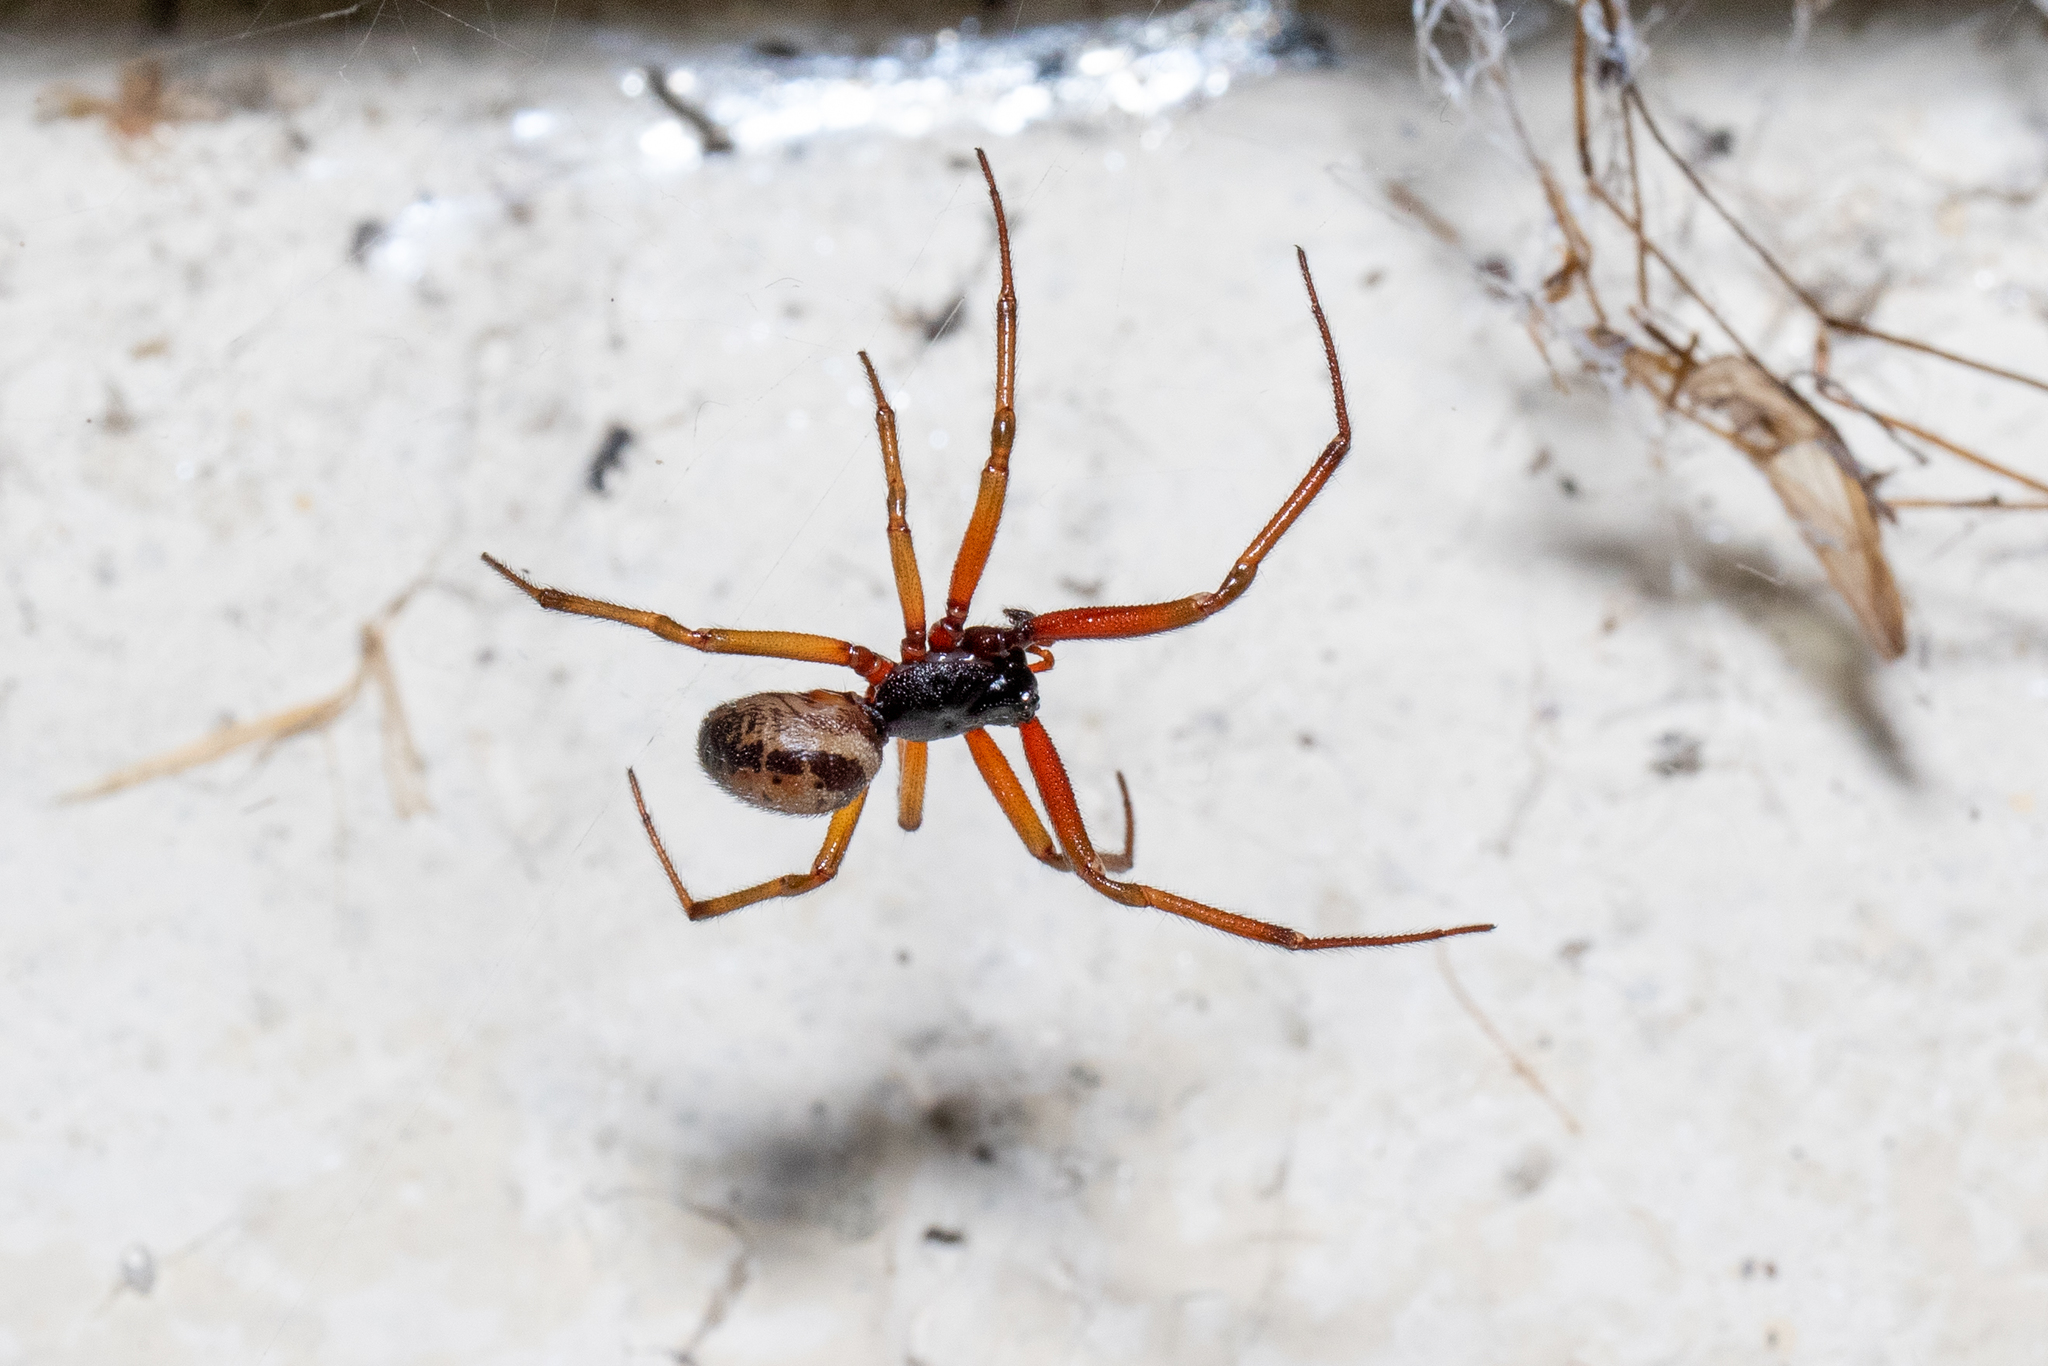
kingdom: Animalia
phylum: Arthropoda
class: Arachnida
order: Araneae
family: Theridiidae
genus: Steatoda
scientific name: Steatoda nobilis
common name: Cobweb weaver
